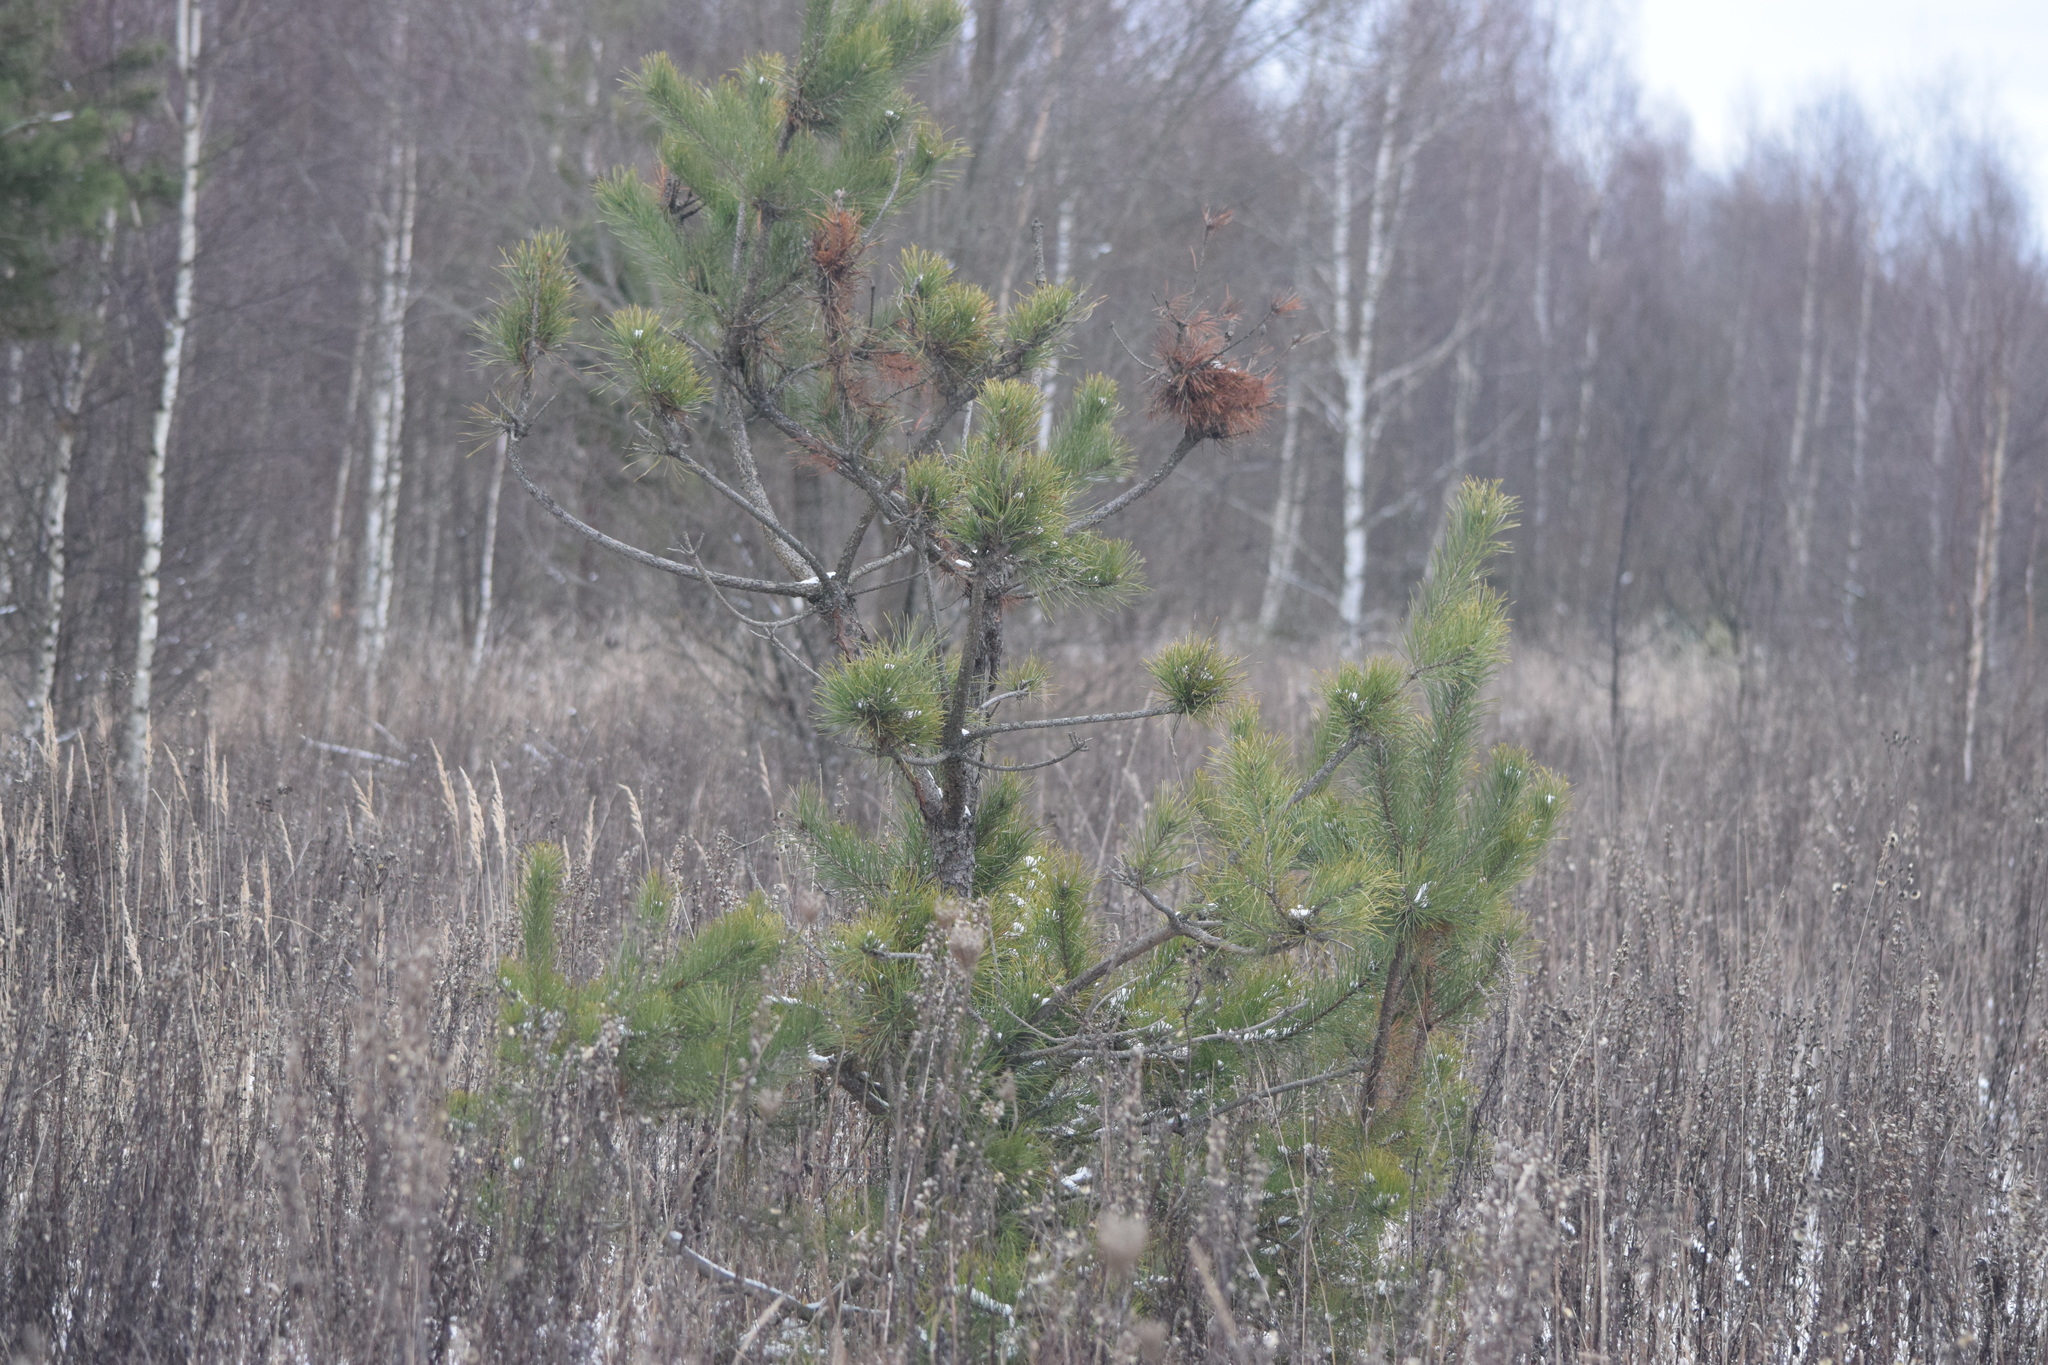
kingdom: Plantae
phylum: Tracheophyta
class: Pinopsida
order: Pinales
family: Pinaceae
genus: Pinus
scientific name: Pinus sylvestris
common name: Scots pine
